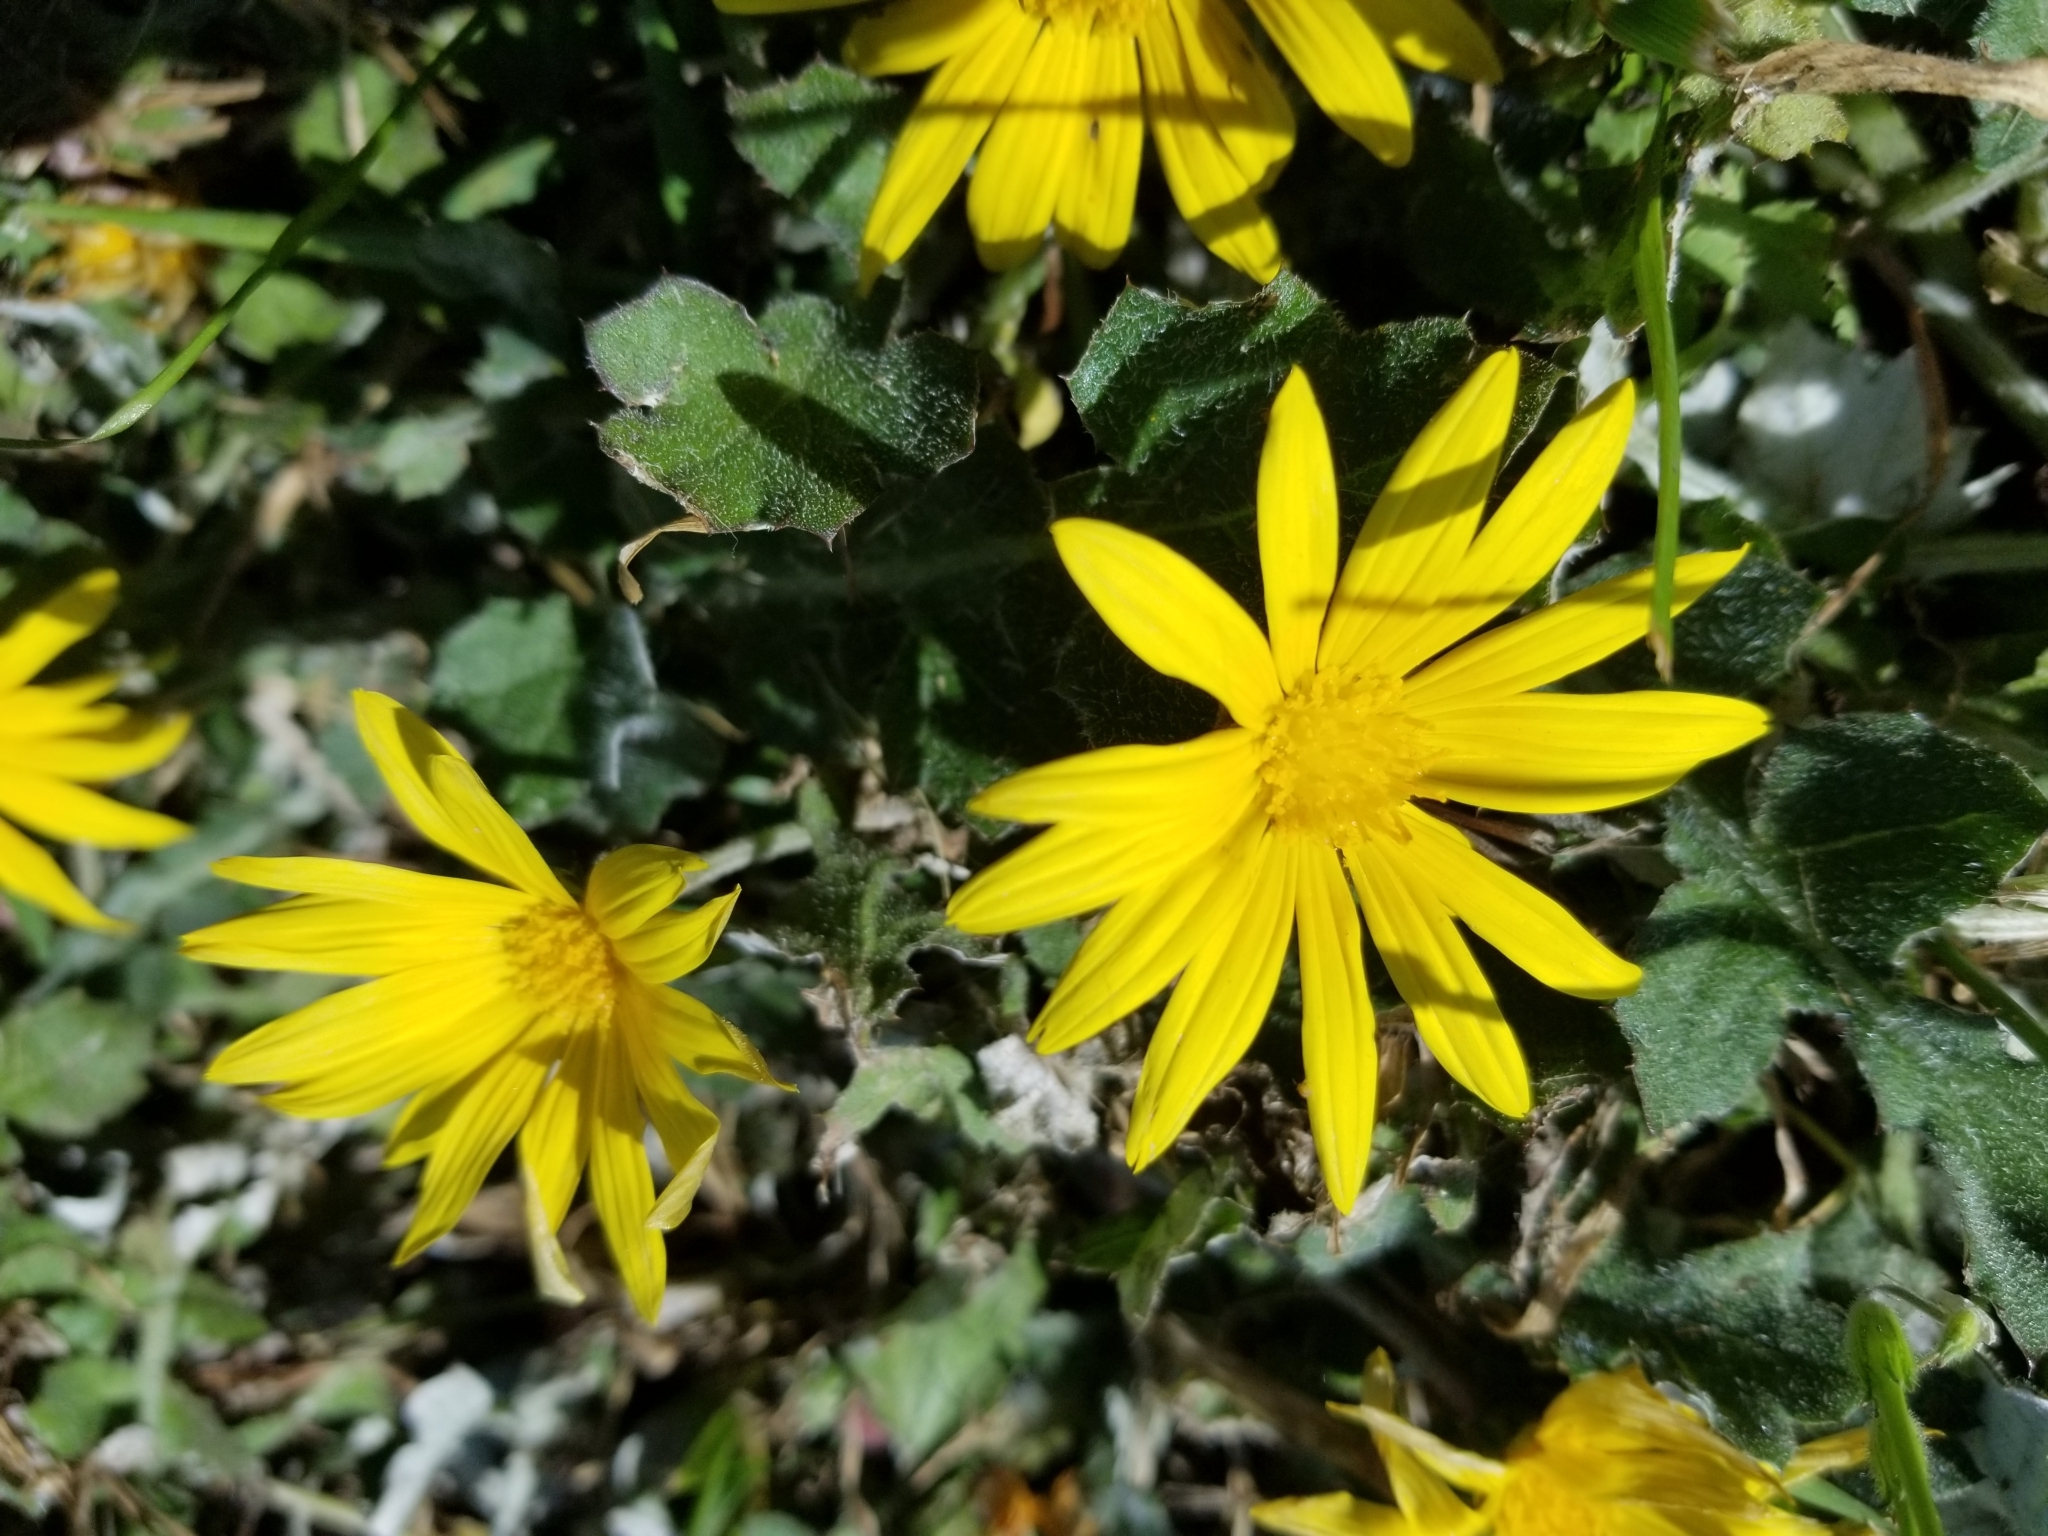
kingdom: Plantae
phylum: Tracheophyta
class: Magnoliopsida
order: Asterales
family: Asteraceae
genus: Arctotheca
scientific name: Arctotheca prostrata
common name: Capeweed
